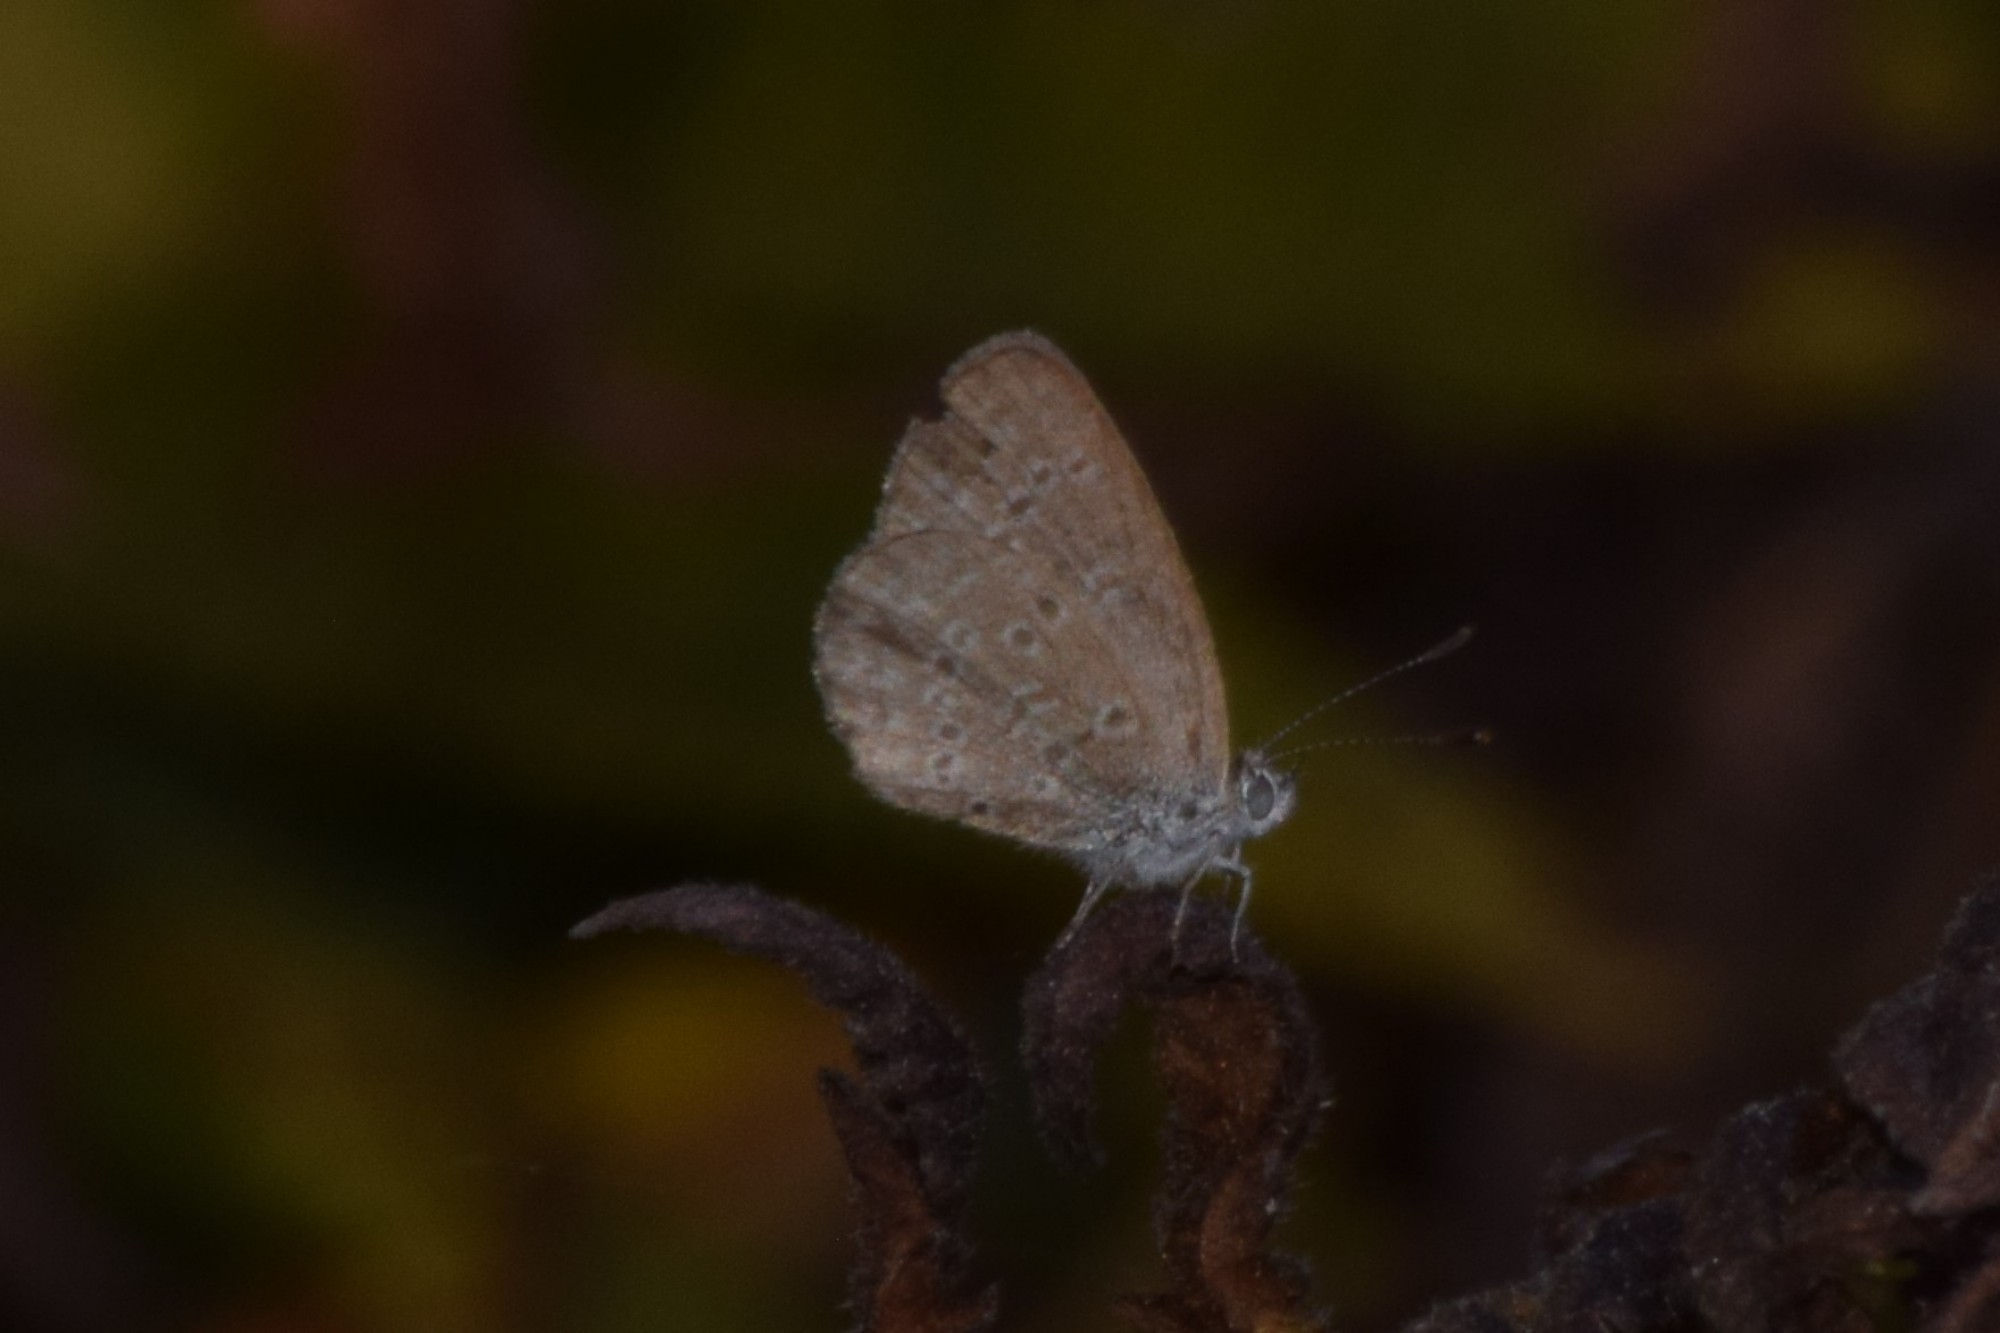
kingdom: Animalia
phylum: Arthropoda
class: Insecta
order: Lepidoptera
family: Lycaenidae
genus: Zizina
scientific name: Zizina otis
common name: Lesser grass blue
